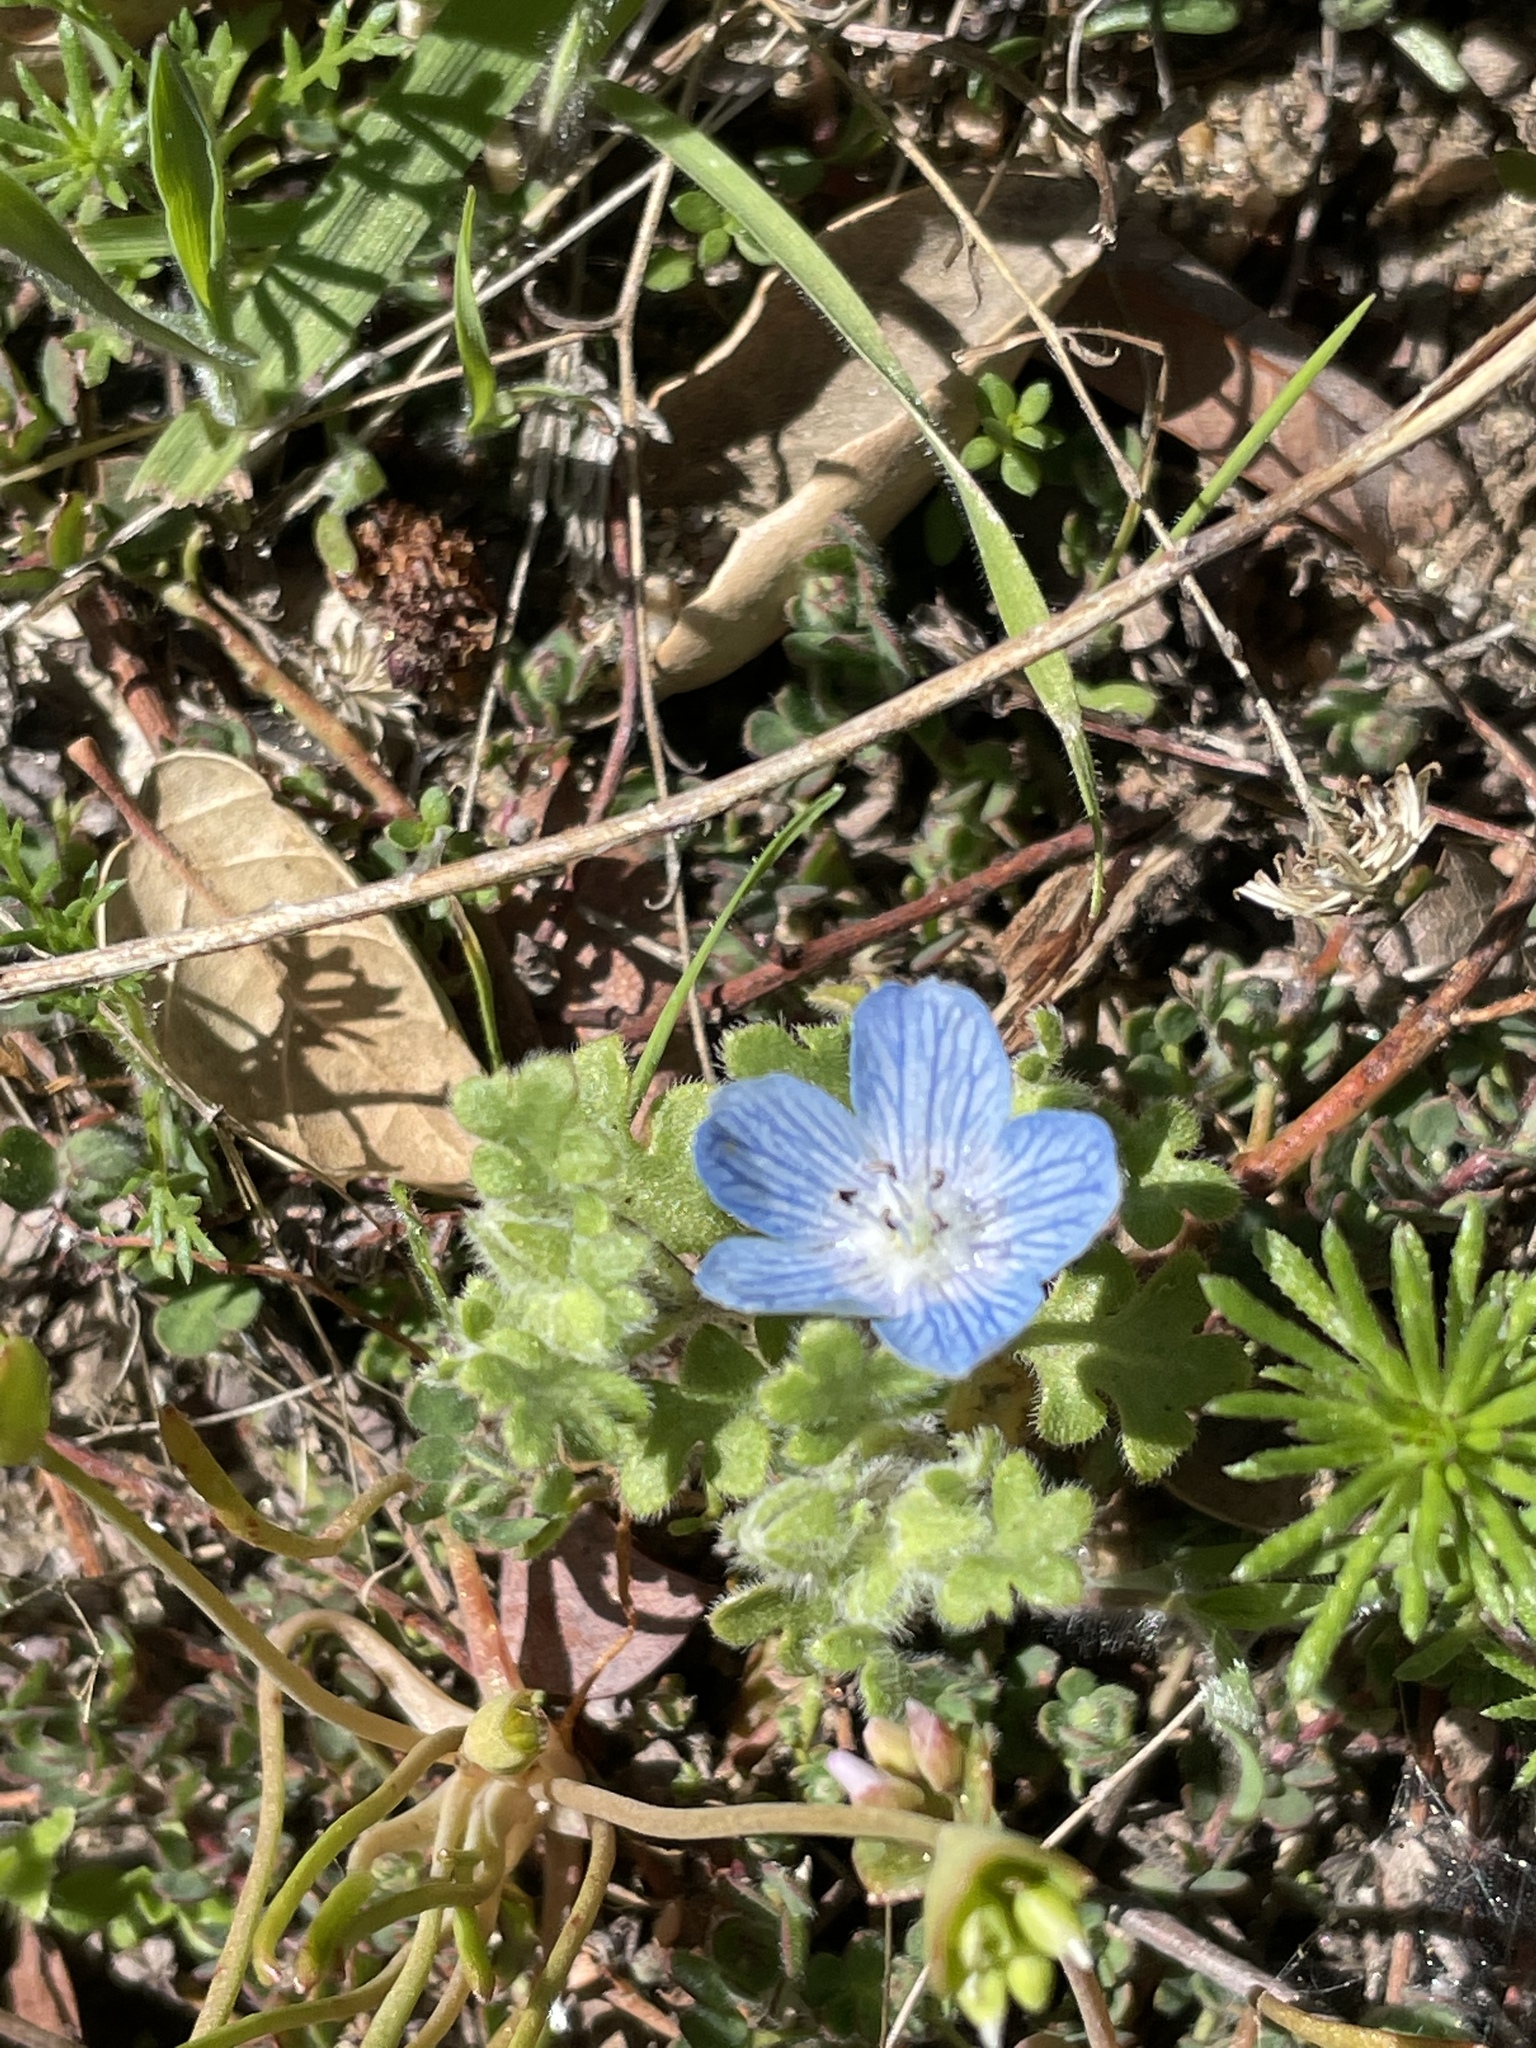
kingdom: Plantae
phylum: Tracheophyta
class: Magnoliopsida
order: Boraginales
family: Hydrophyllaceae
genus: Nemophila
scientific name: Nemophila menziesii
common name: Baby's-blue-eyes
